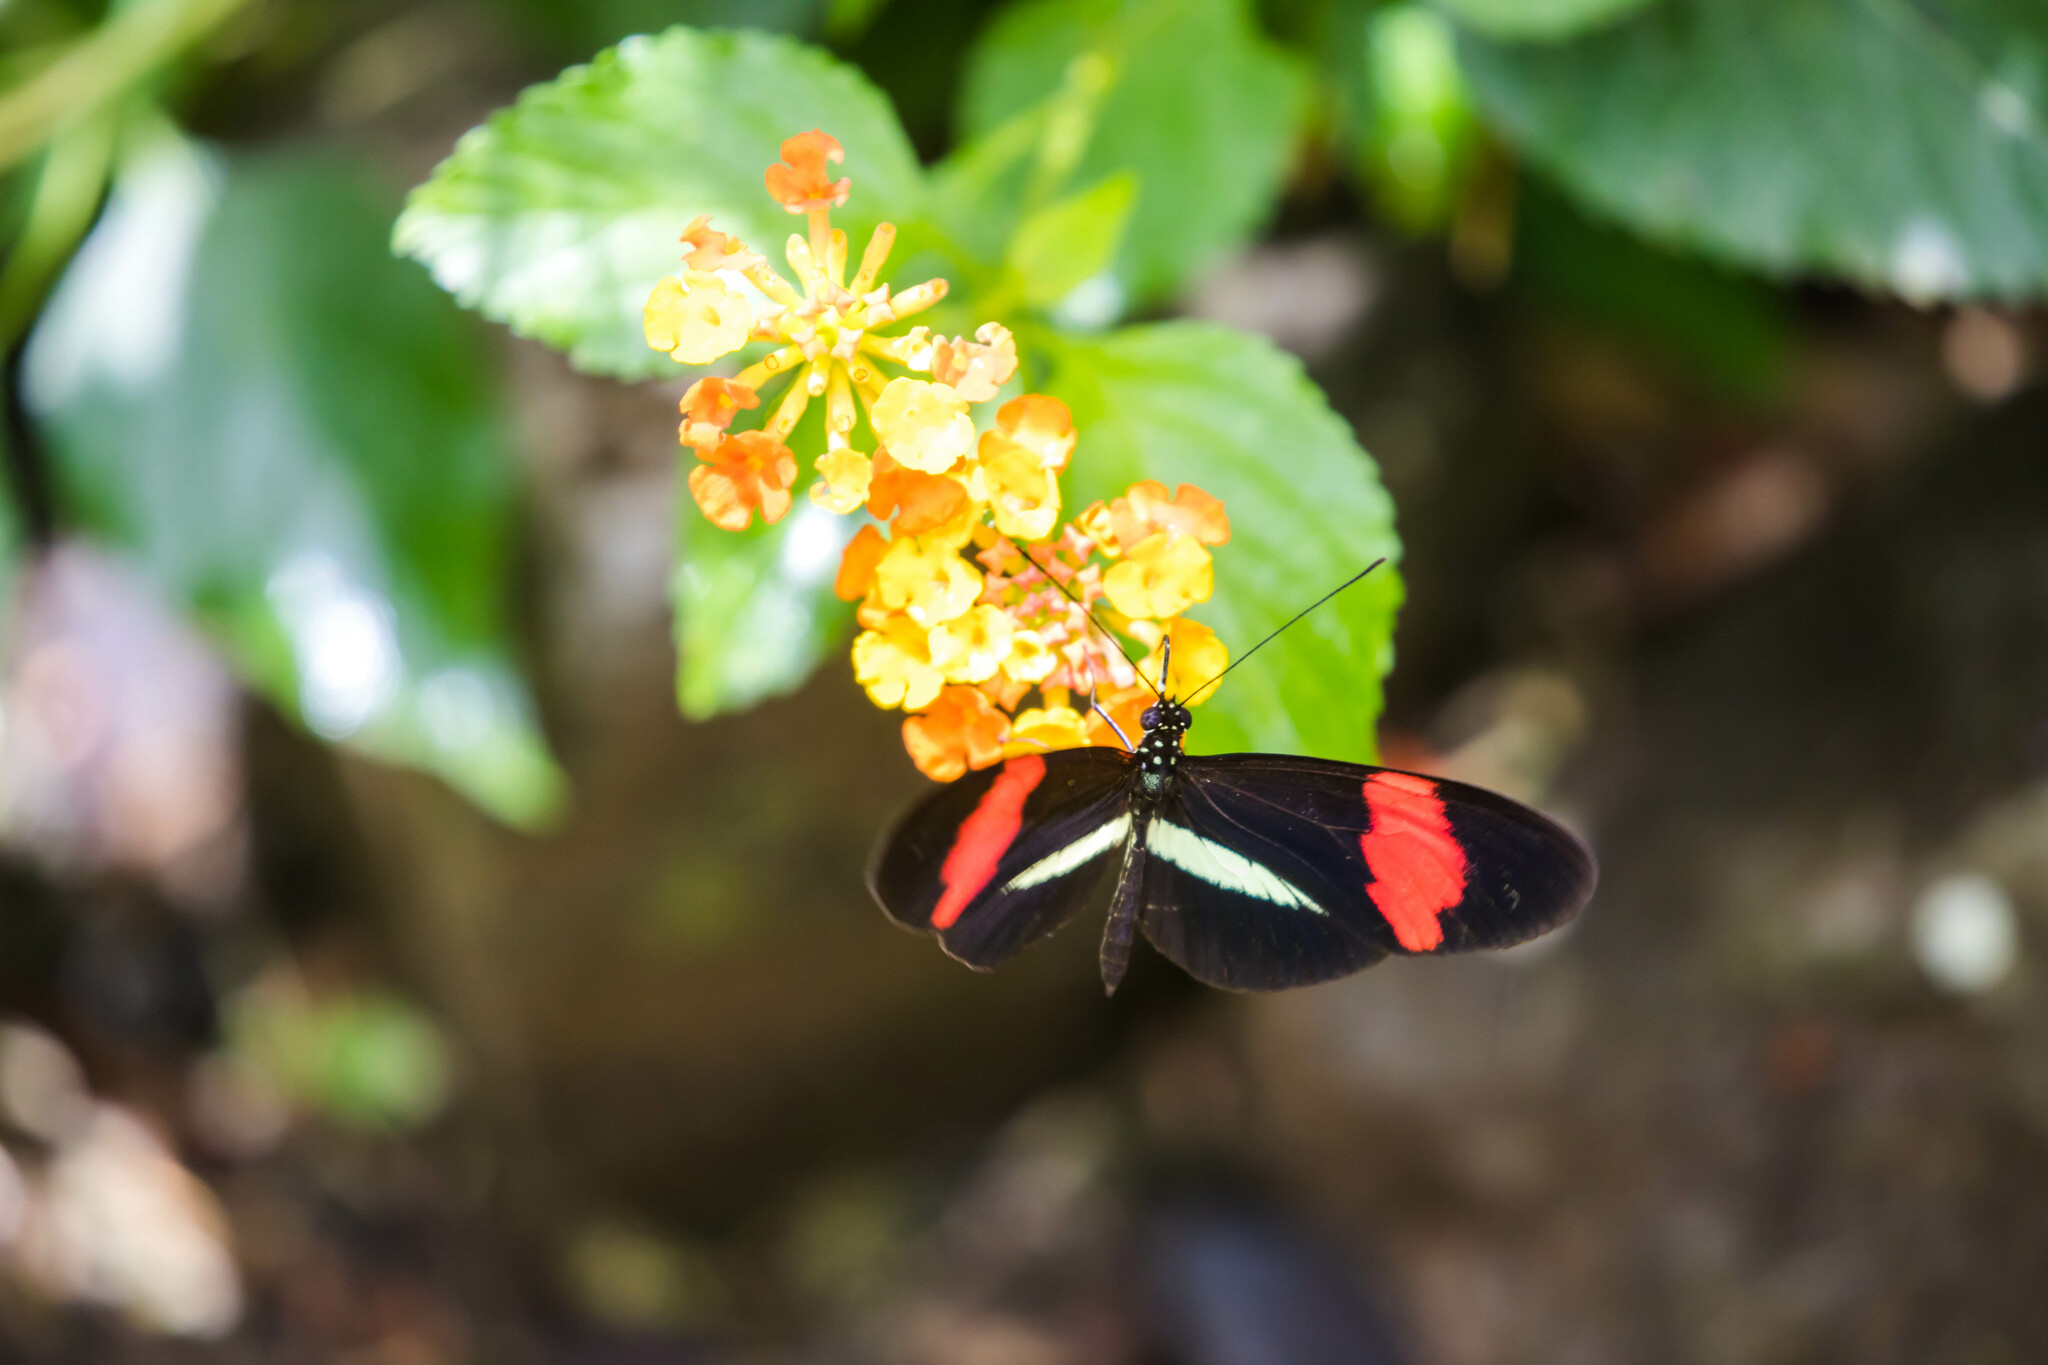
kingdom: Animalia
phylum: Arthropoda
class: Insecta
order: Lepidoptera
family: Nymphalidae
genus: Heliconius
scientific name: Heliconius erato
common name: Common patch longwing
